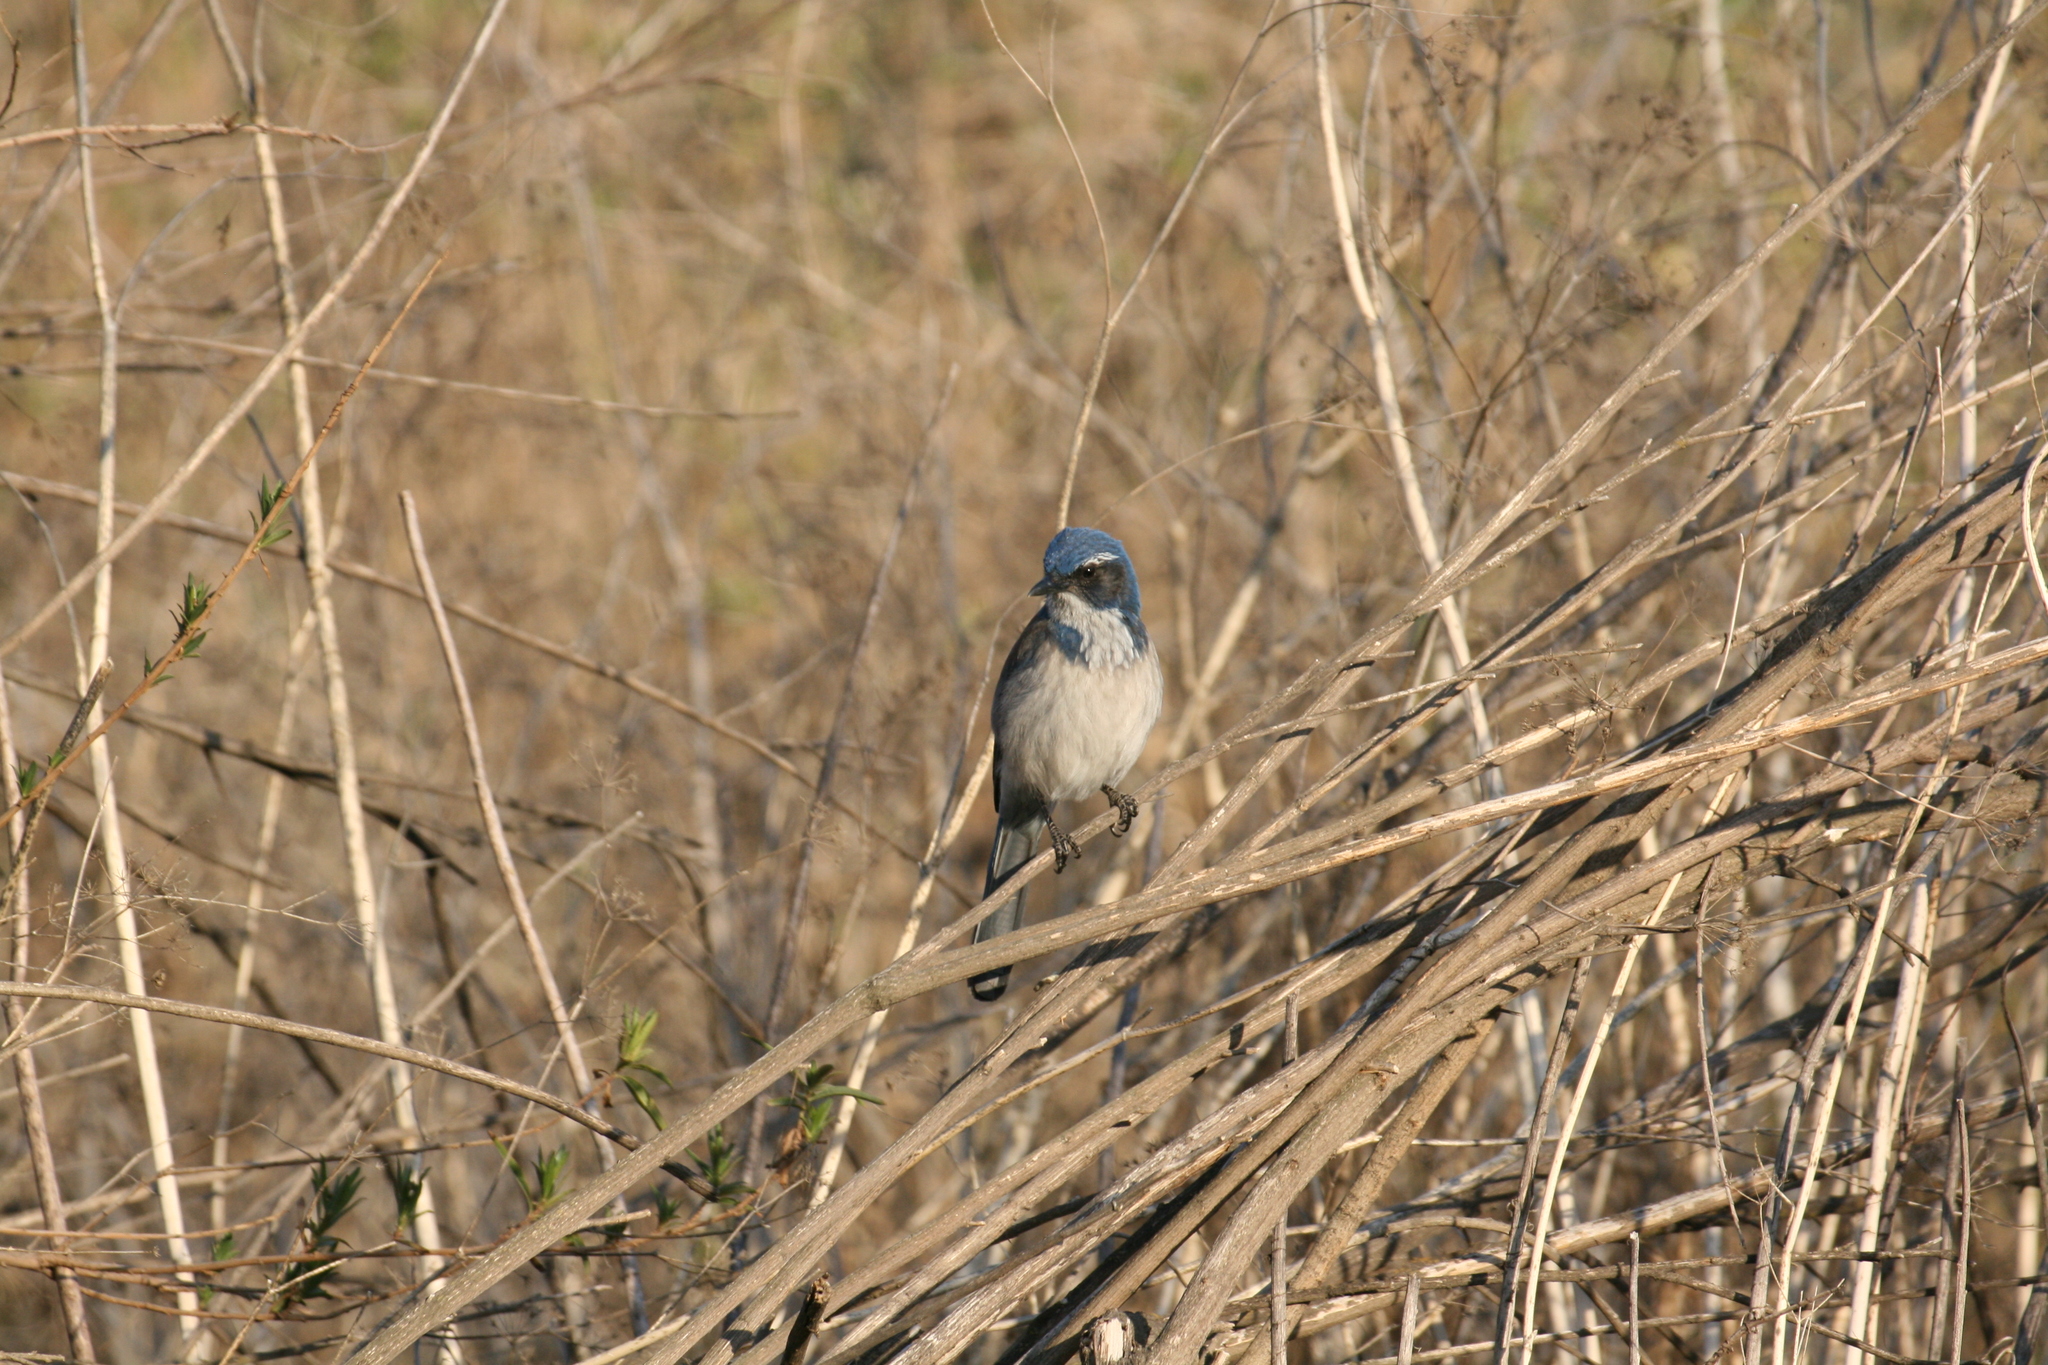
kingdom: Animalia
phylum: Chordata
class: Aves
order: Passeriformes
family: Corvidae
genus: Aphelocoma
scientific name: Aphelocoma californica
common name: California scrub-jay
